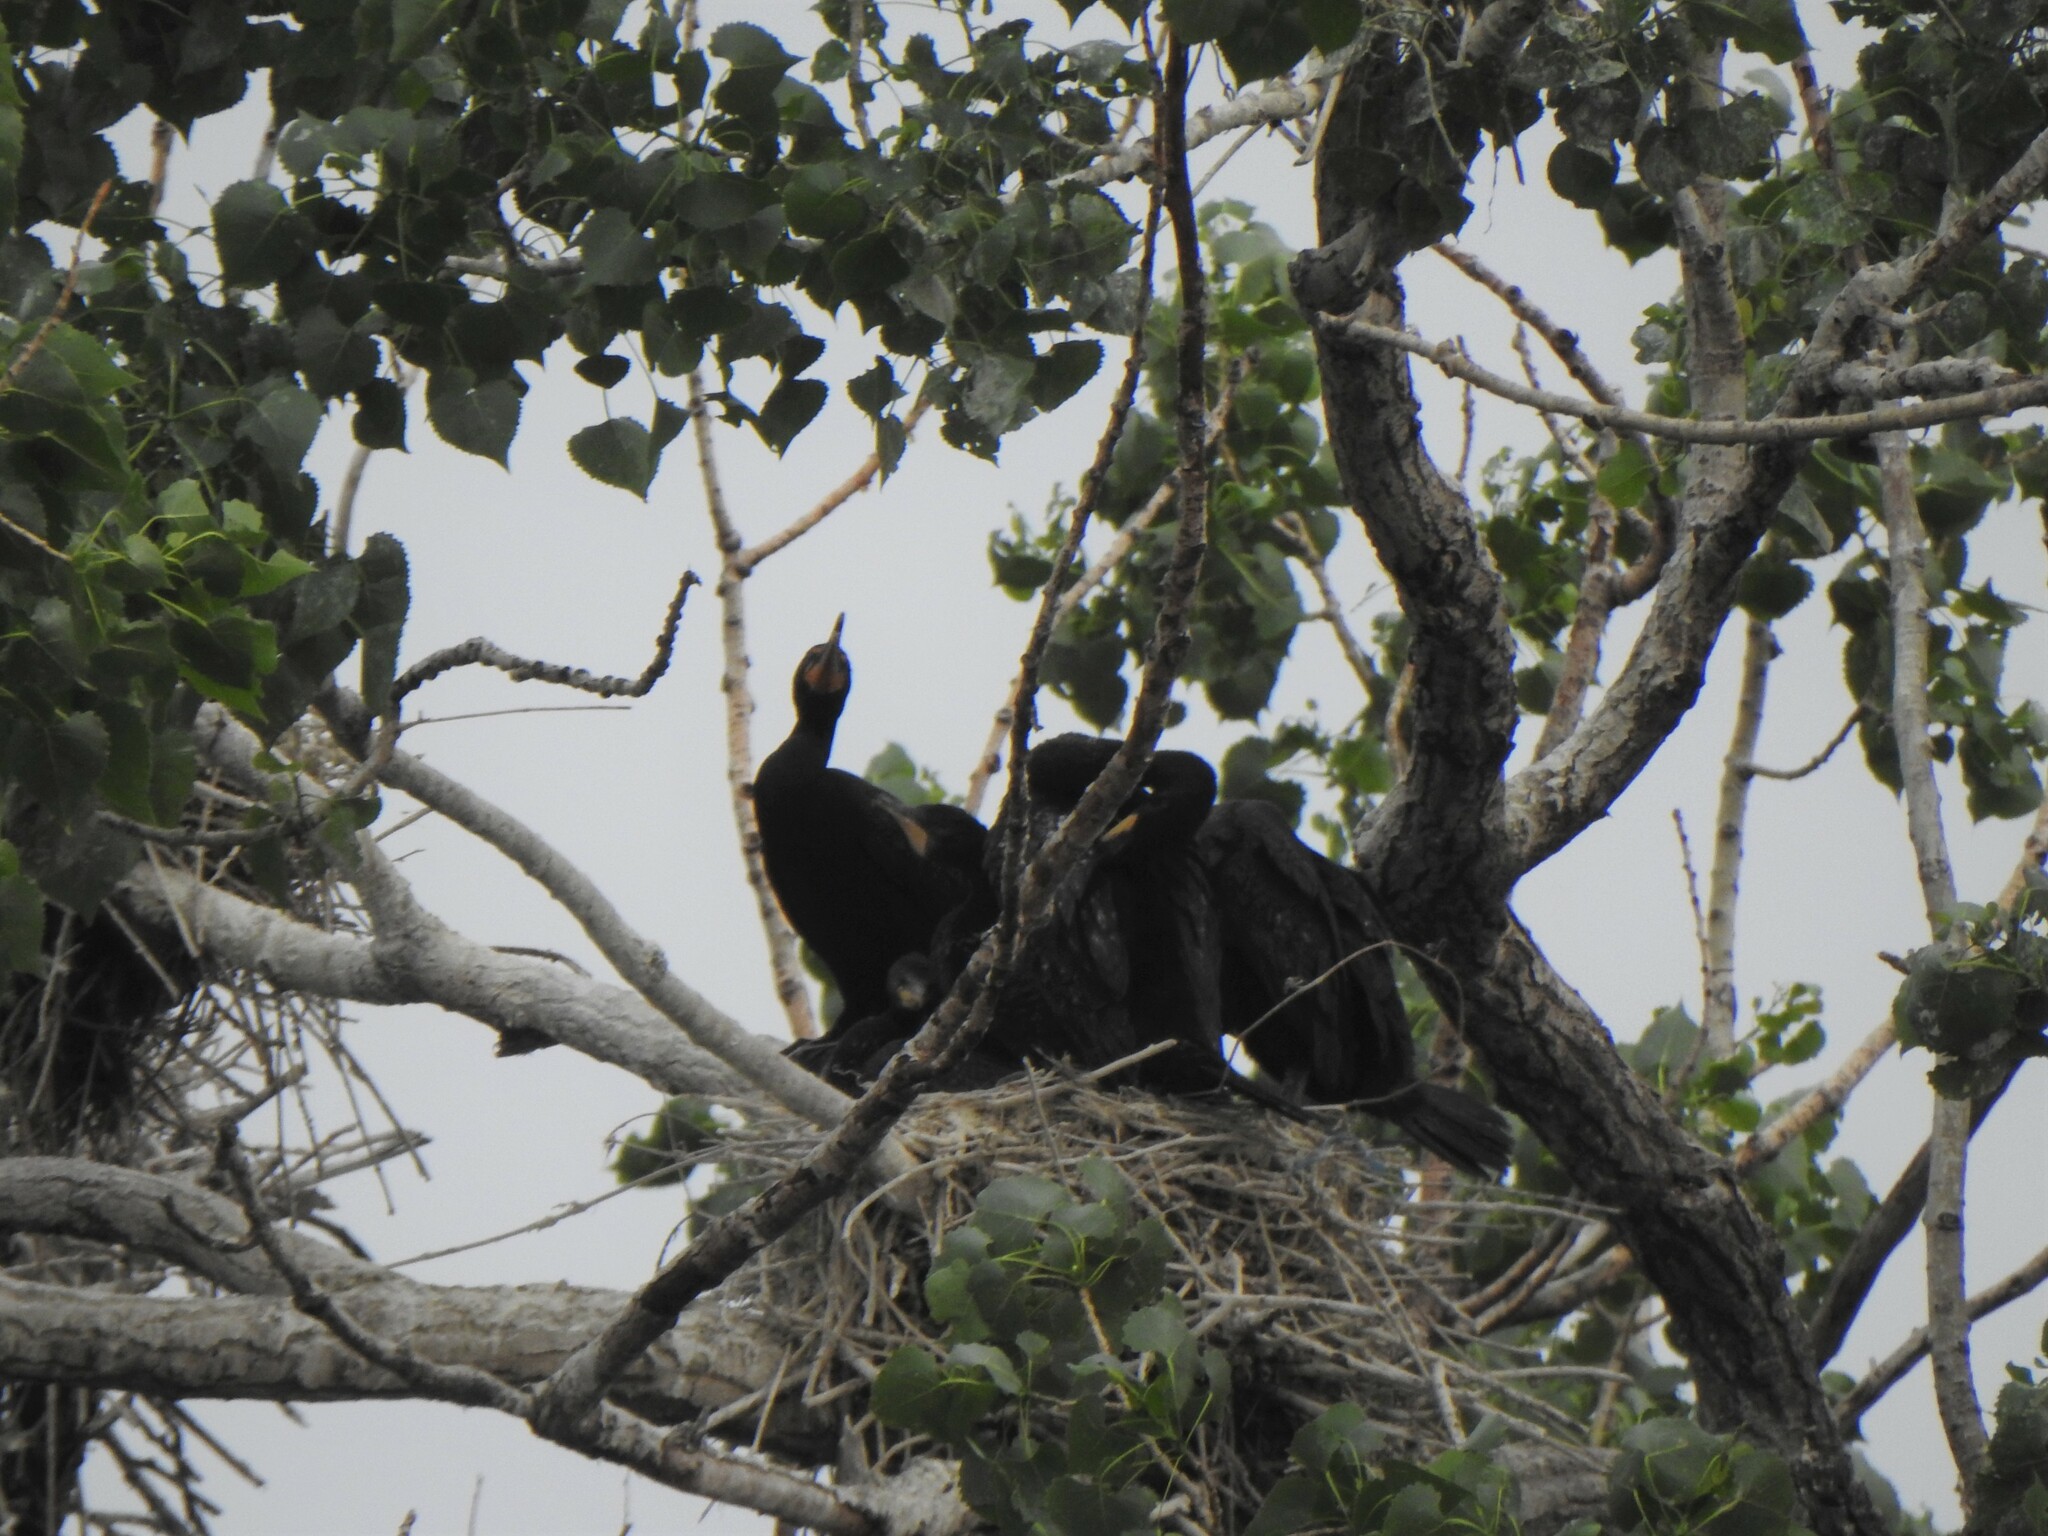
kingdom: Animalia
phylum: Chordata
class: Aves
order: Suliformes
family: Phalacrocoracidae
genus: Phalacrocorax
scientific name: Phalacrocorax auritus
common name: Double-crested cormorant
